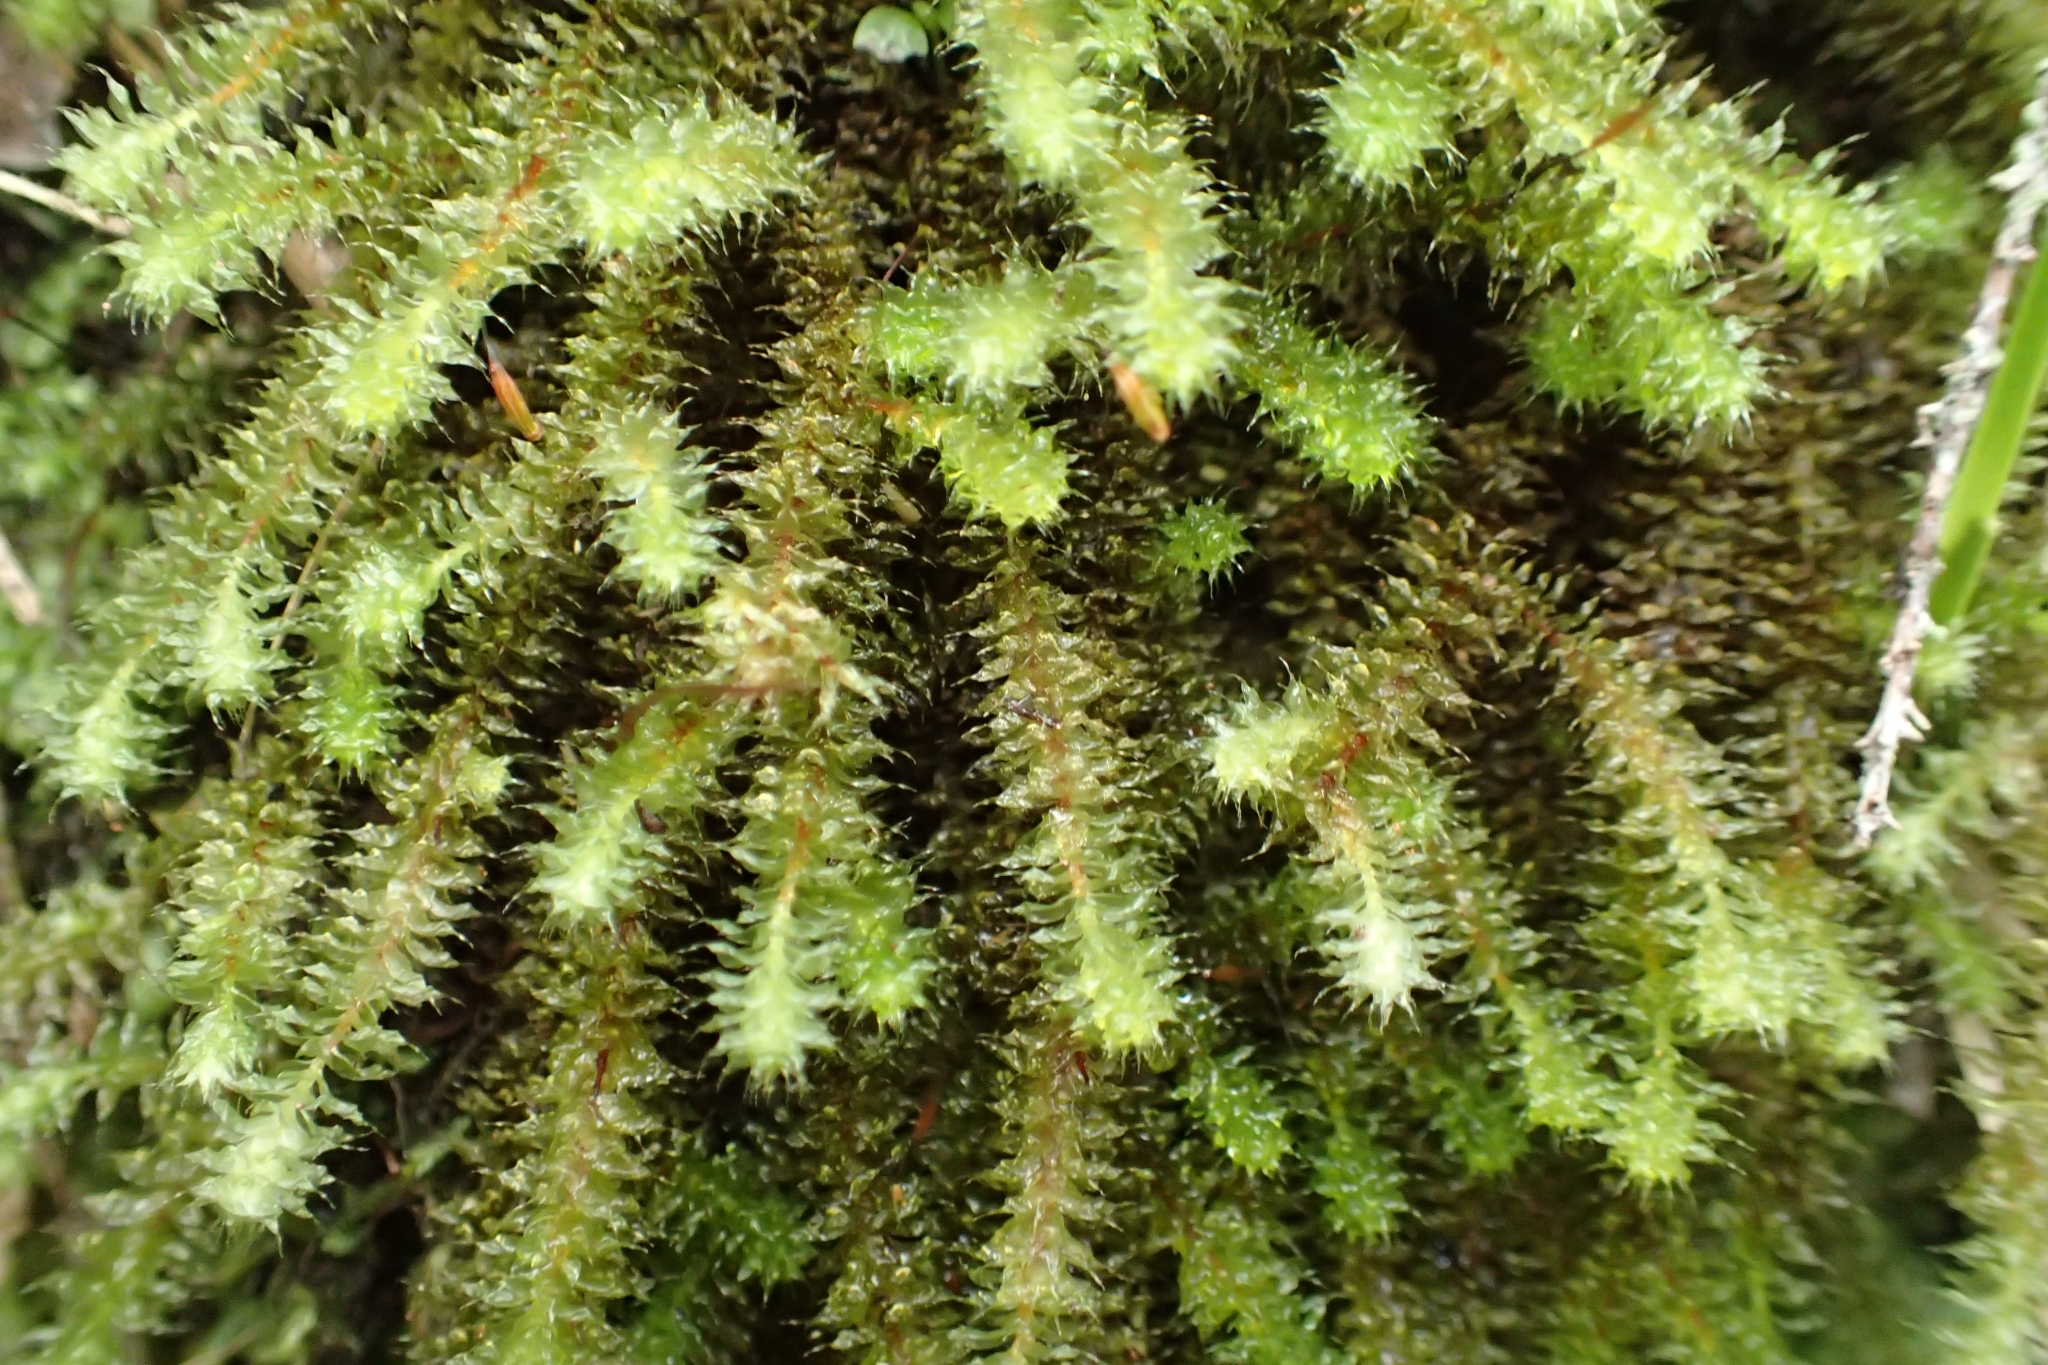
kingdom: Plantae
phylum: Bryophyta
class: Bryopsida
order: Ptychomniales
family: Ptychomniaceae
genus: Ptychomnion
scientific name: Ptychomnion aciculare
